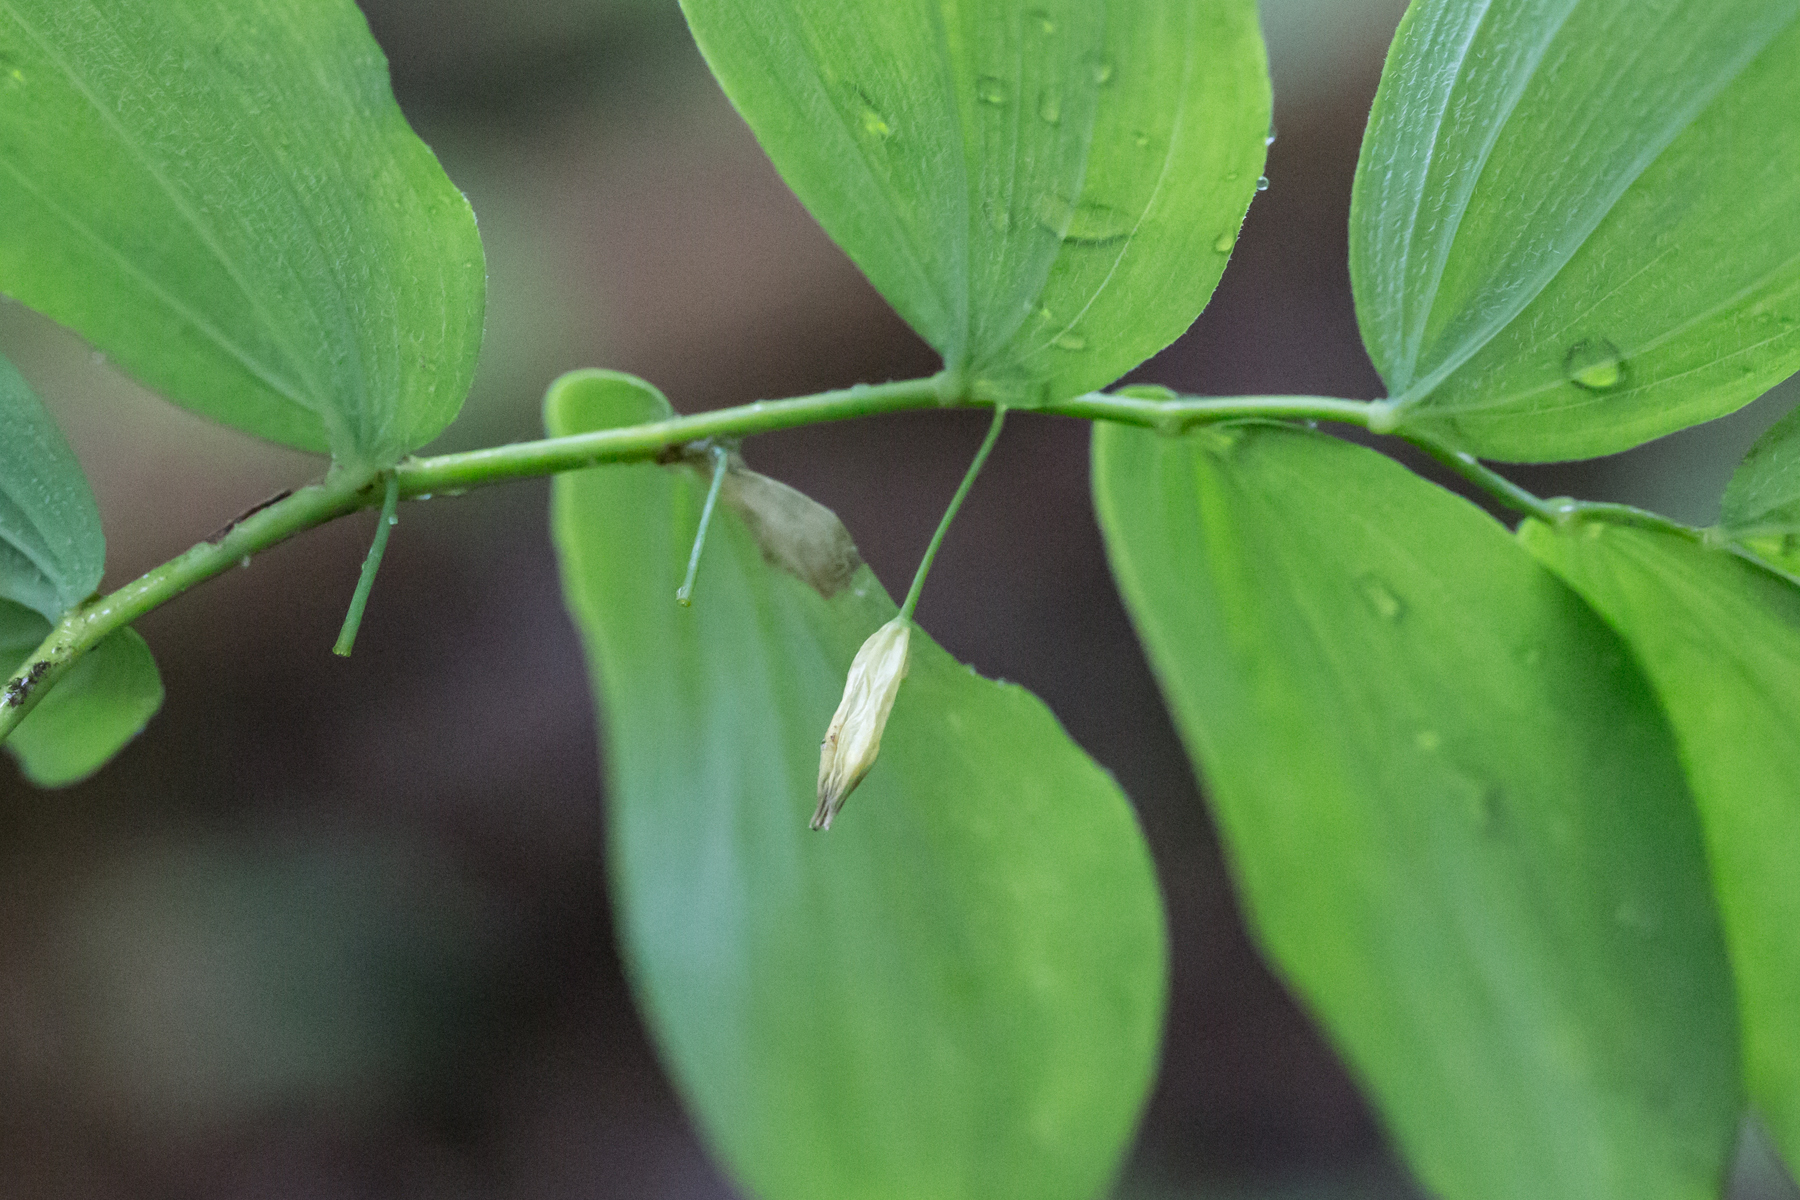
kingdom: Plantae
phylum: Tracheophyta
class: Liliopsida
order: Asparagales
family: Asparagaceae
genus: Polygonatum
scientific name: Polygonatum pubescens
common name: Downy solomon's seal
